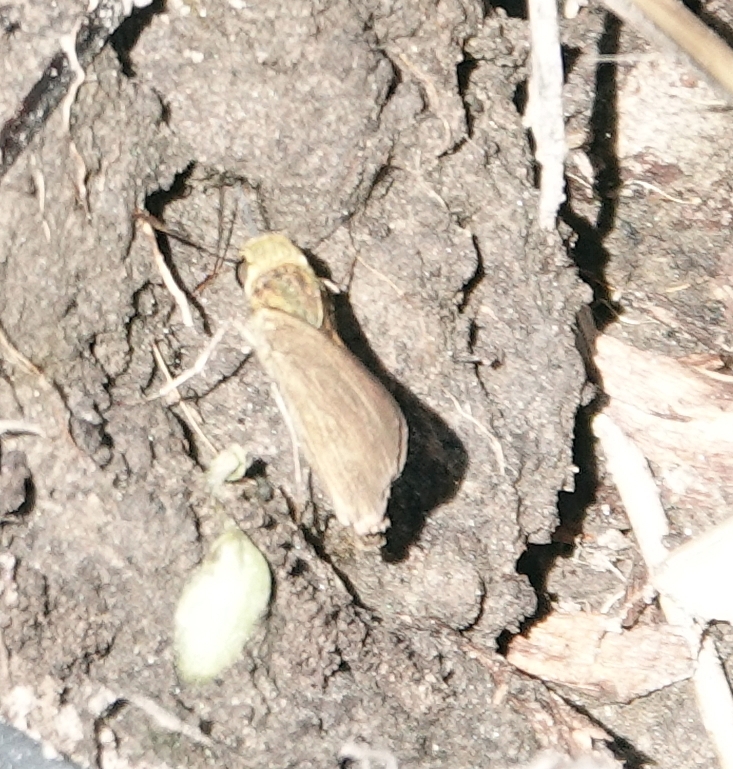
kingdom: Animalia
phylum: Arthropoda
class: Insecta
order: Lepidoptera
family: Hesperiidae
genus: Euphyes
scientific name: Euphyes vestris
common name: Dun skipper
